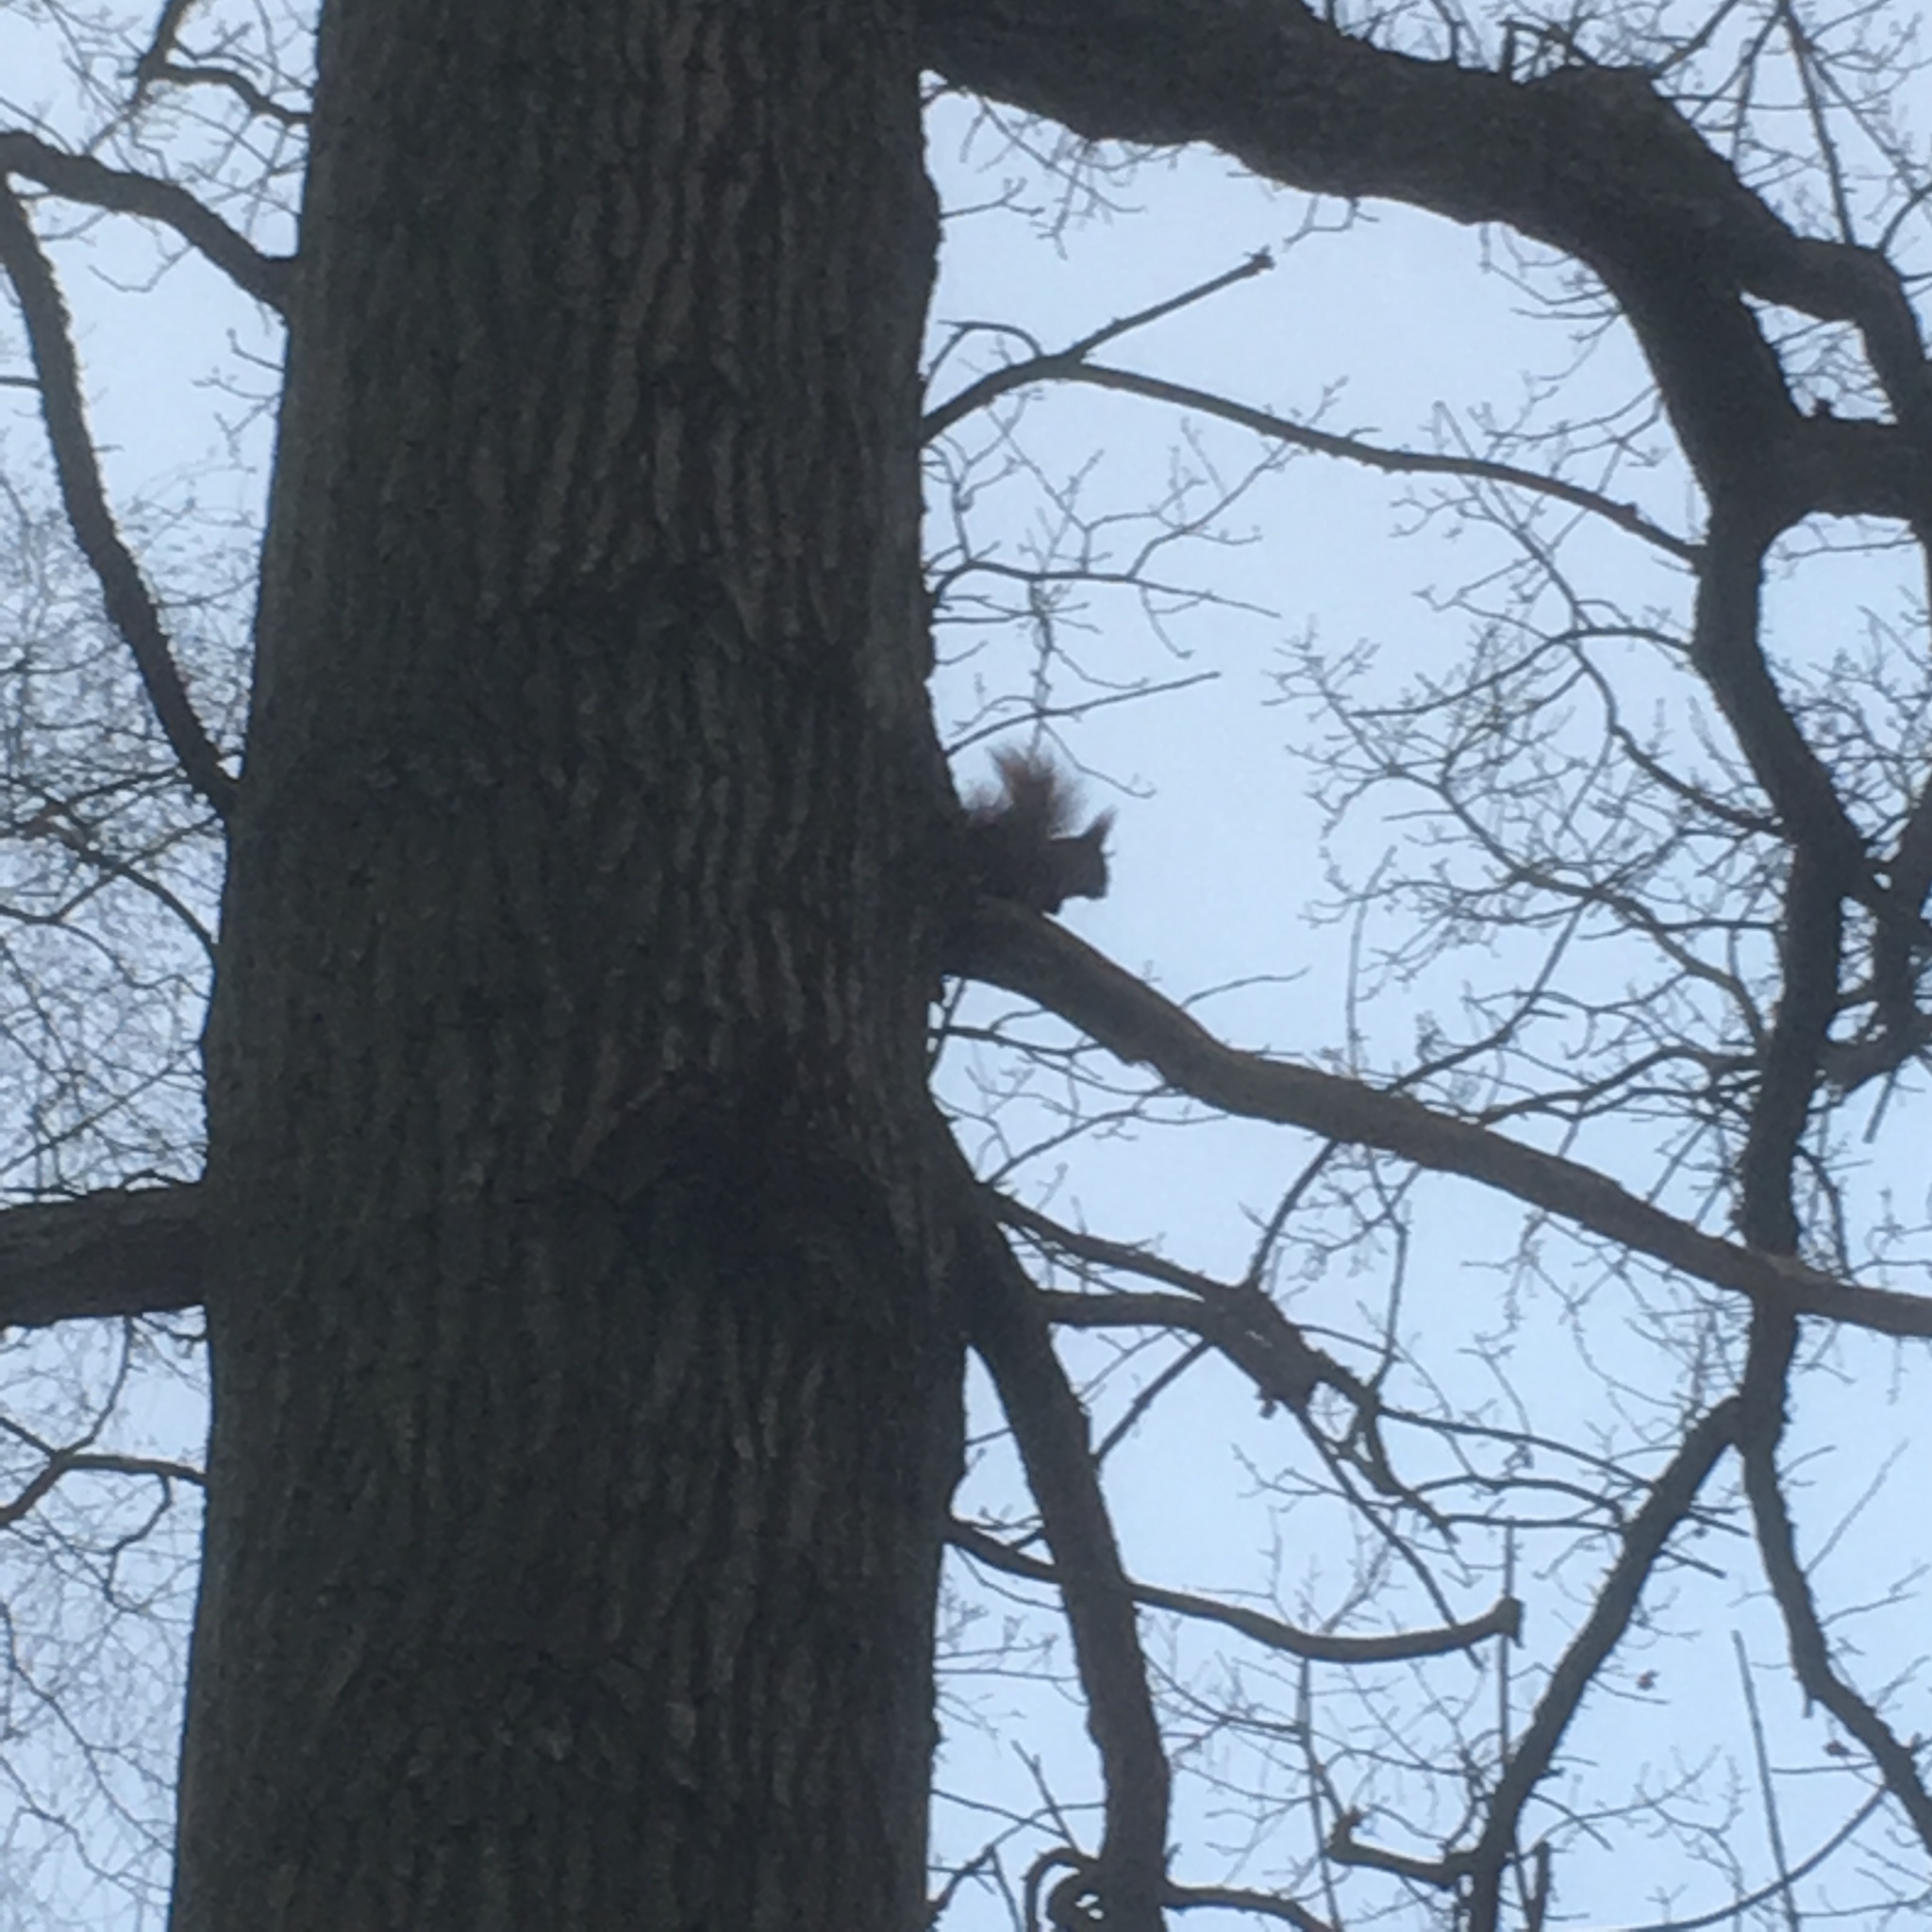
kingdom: Animalia
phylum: Chordata
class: Mammalia
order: Rodentia
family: Sciuridae
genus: Sciurus
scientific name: Sciurus vulgaris
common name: Eurasian red squirrel
